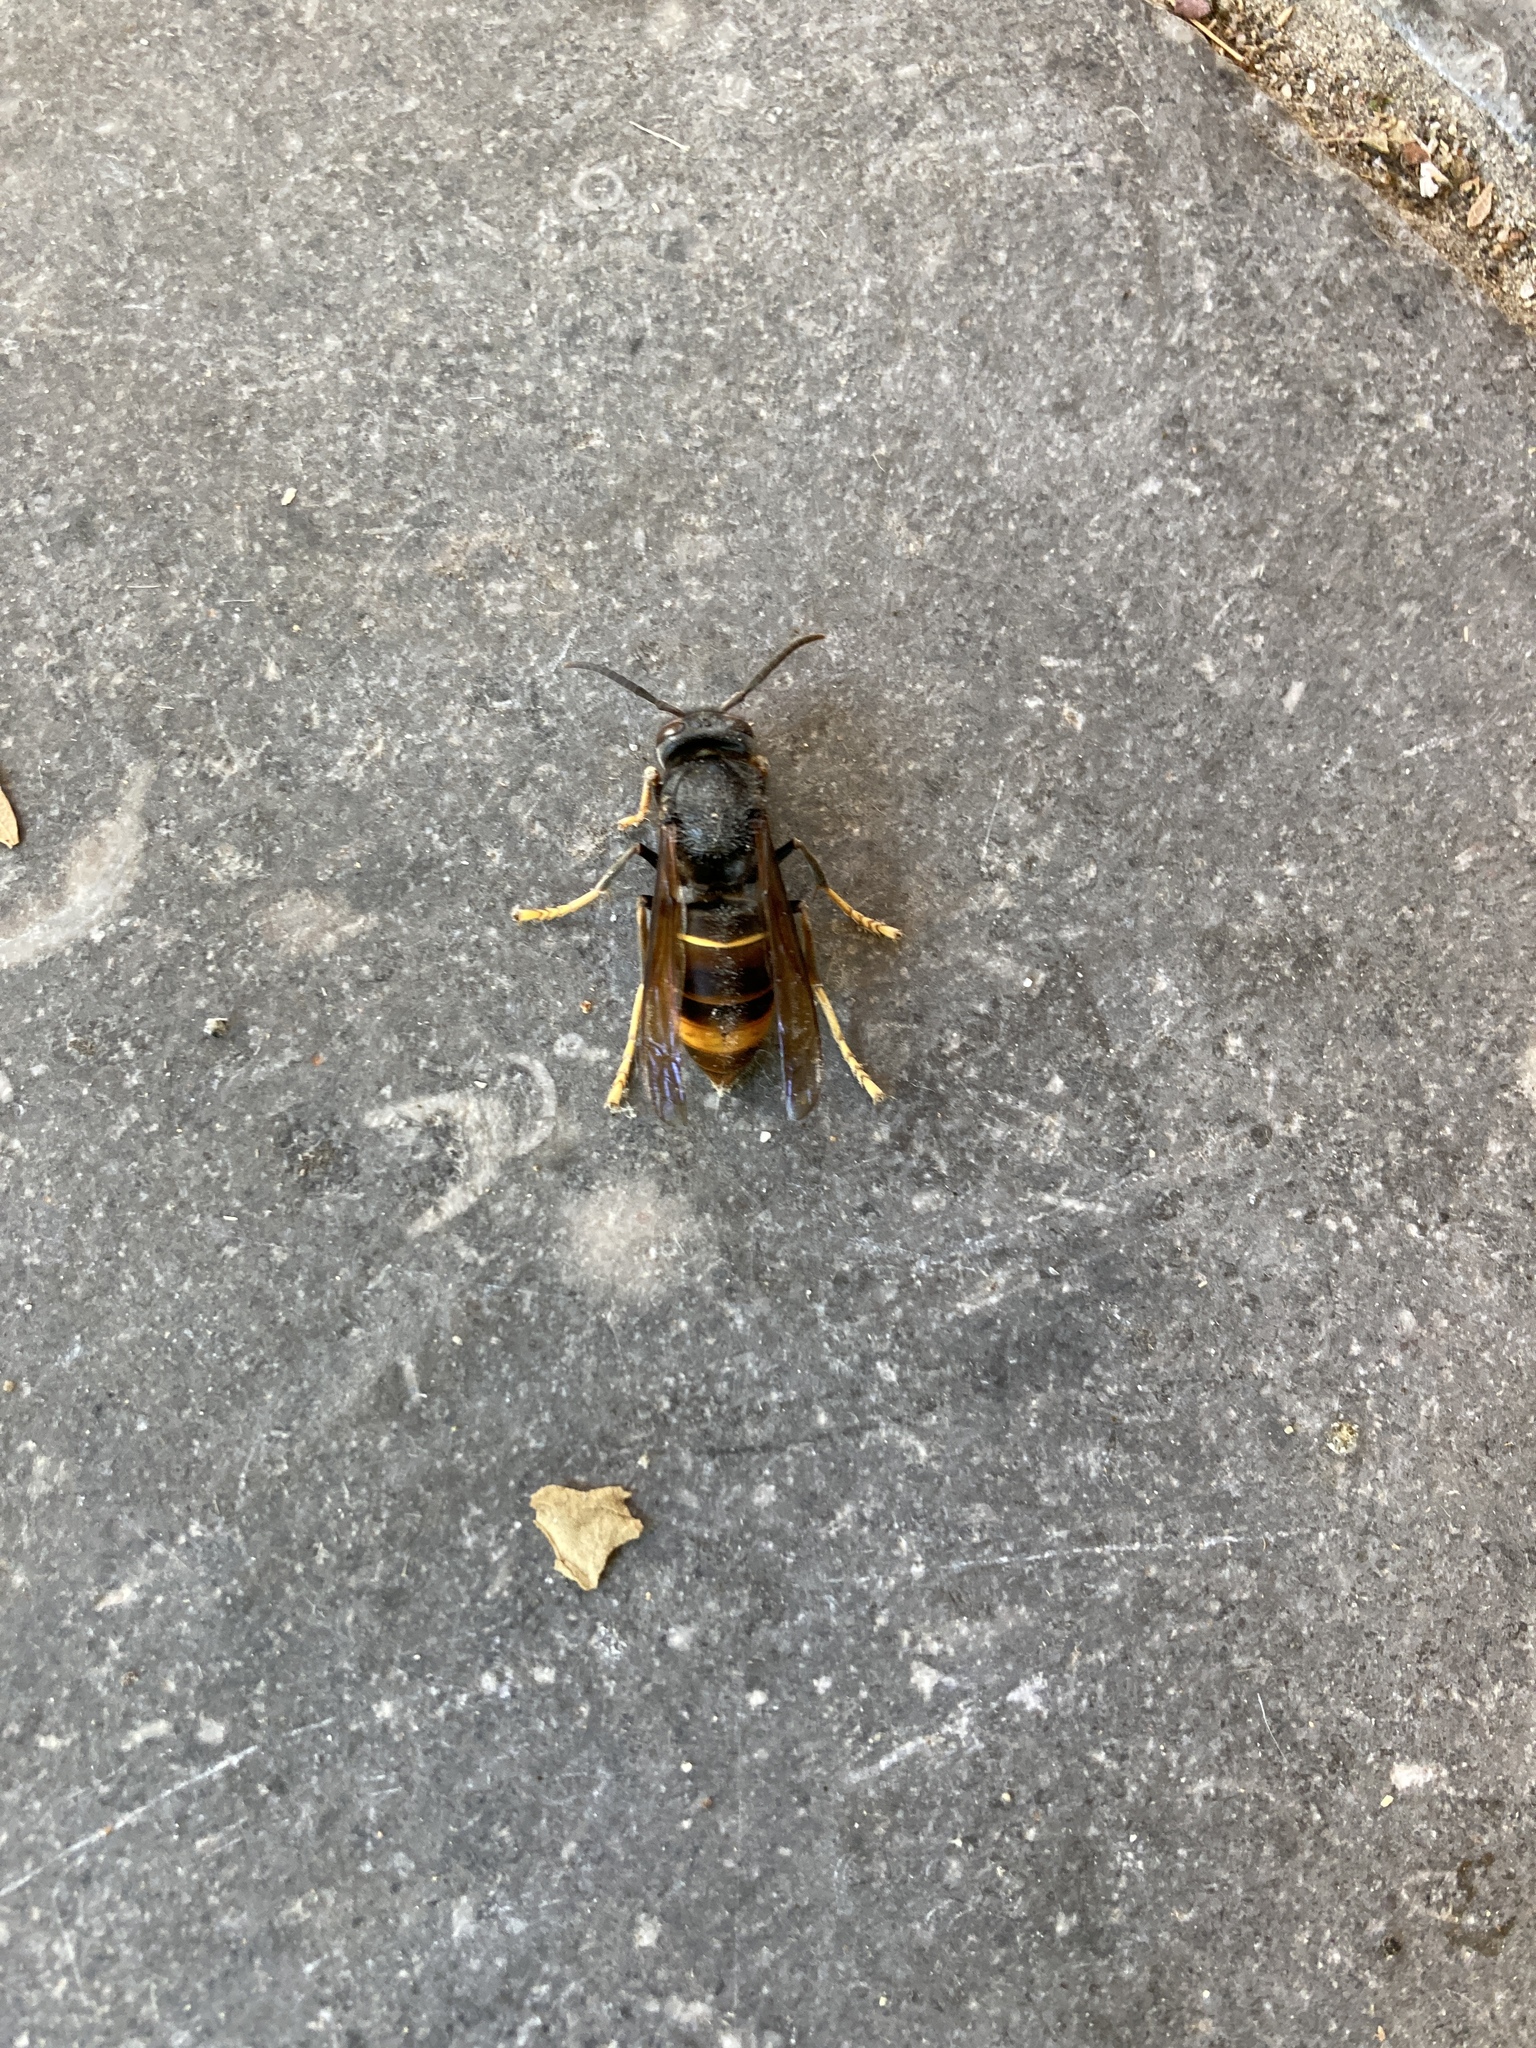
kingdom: Animalia
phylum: Arthropoda
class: Insecta
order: Hymenoptera
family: Vespidae
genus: Vespa
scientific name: Vespa velutina
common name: Asian hornet
